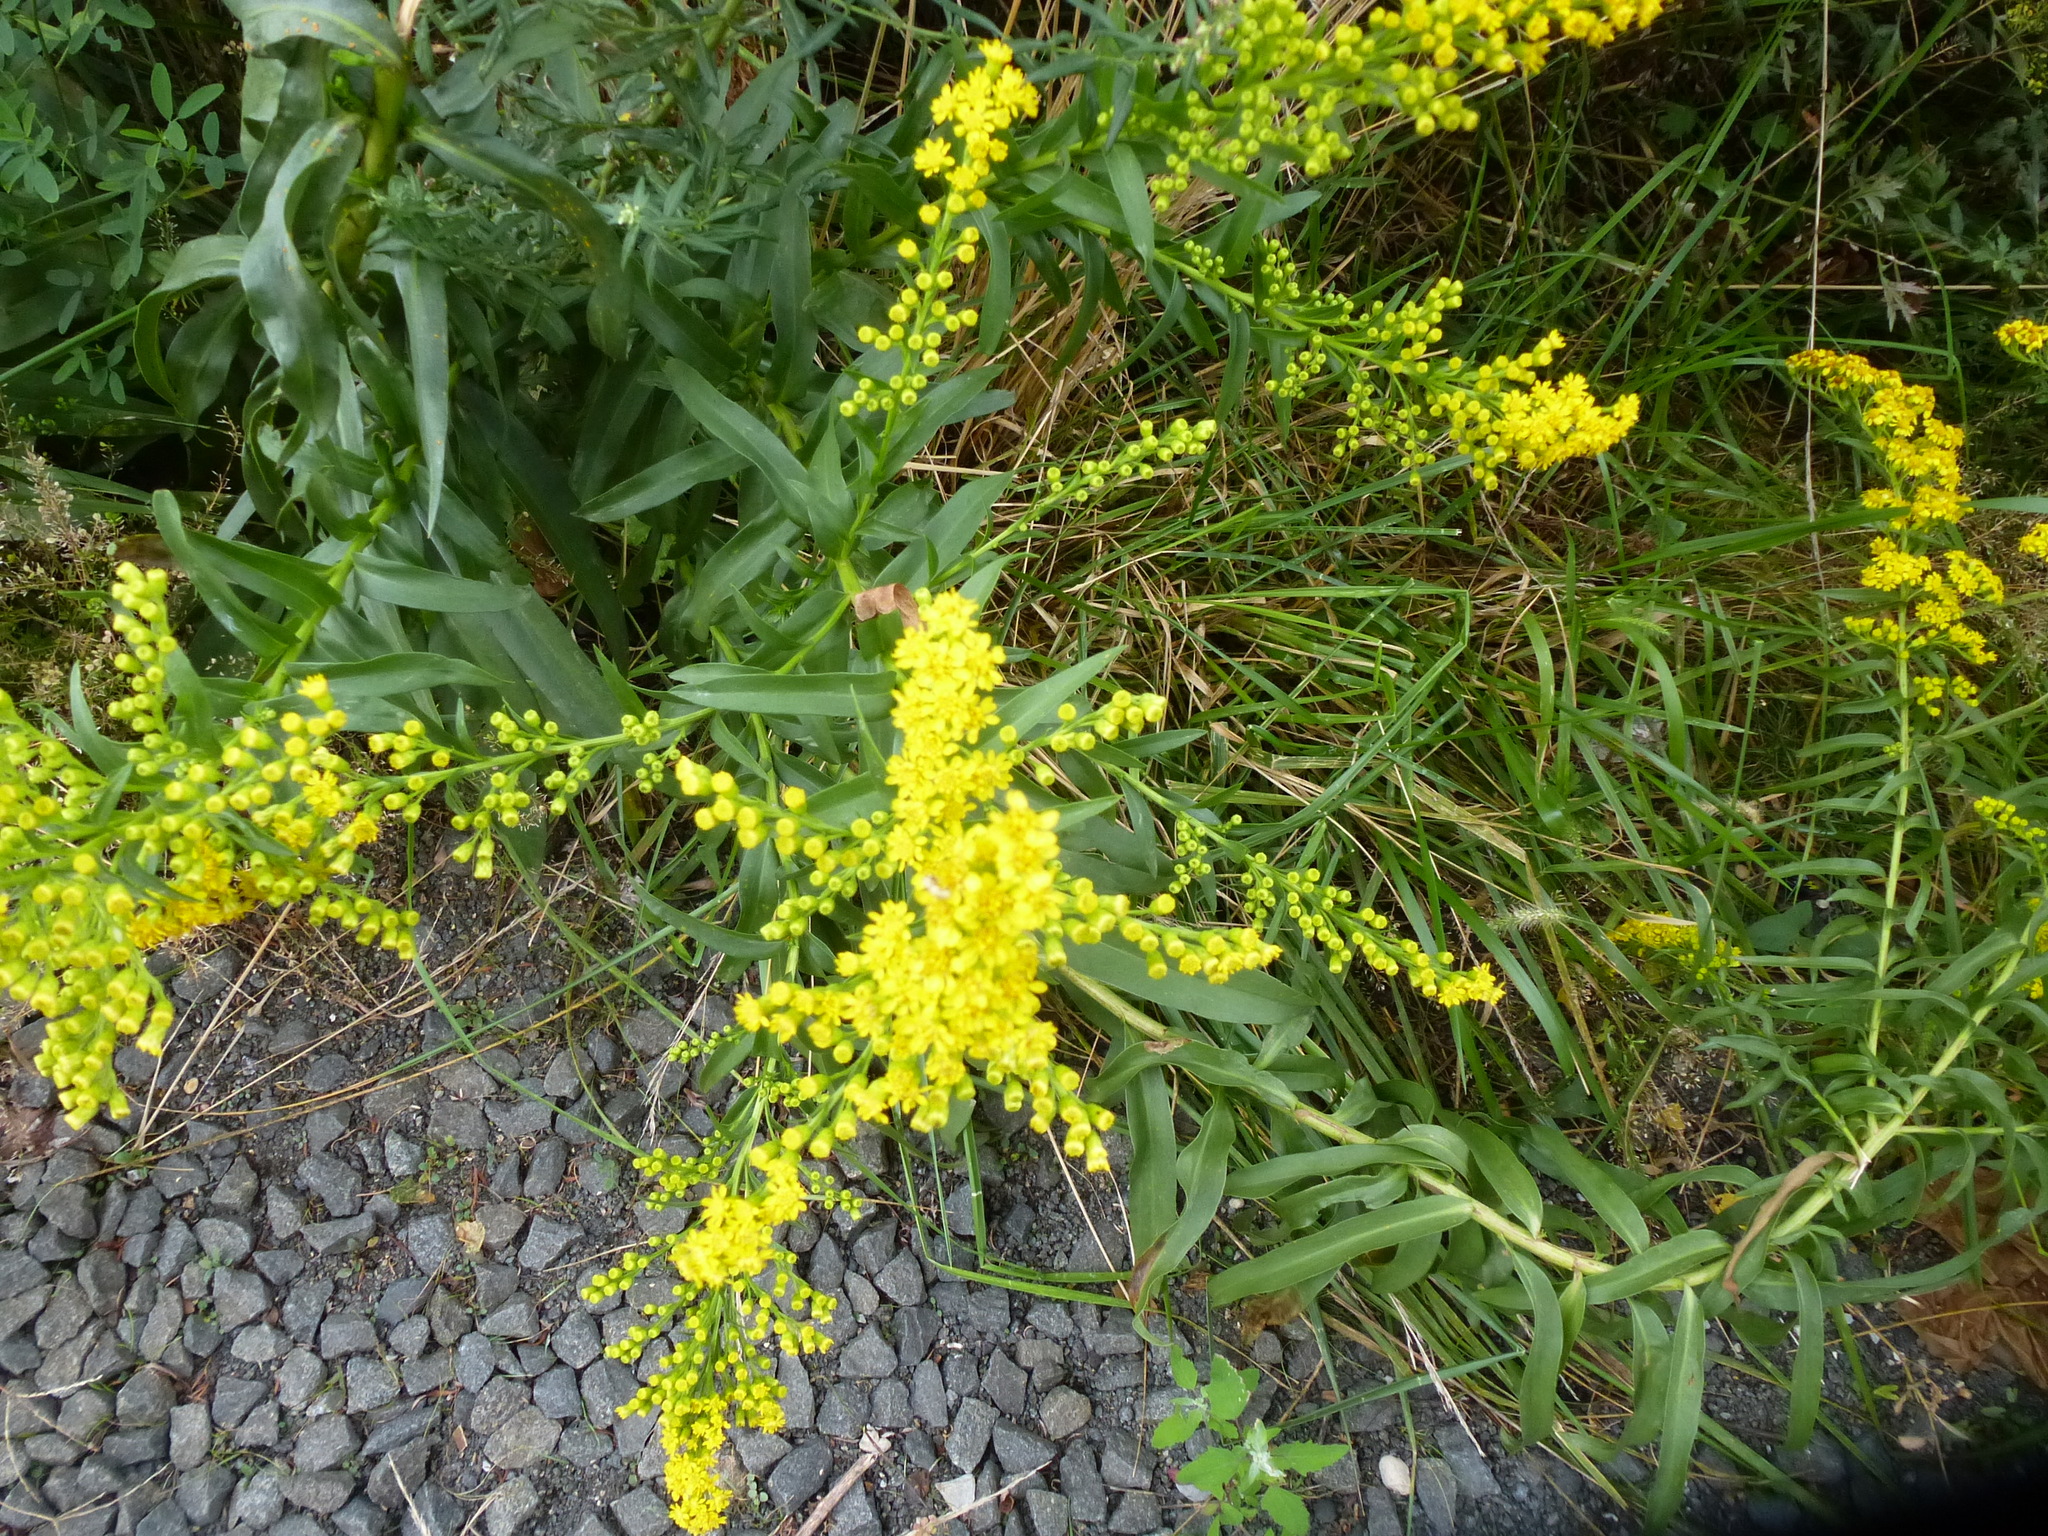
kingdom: Plantae
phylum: Tracheophyta
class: Magnoliopsida
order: Asterales
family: Asteraceae
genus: Solidago
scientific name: Solidago sempervirens
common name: Salt-marsh goldenrod
